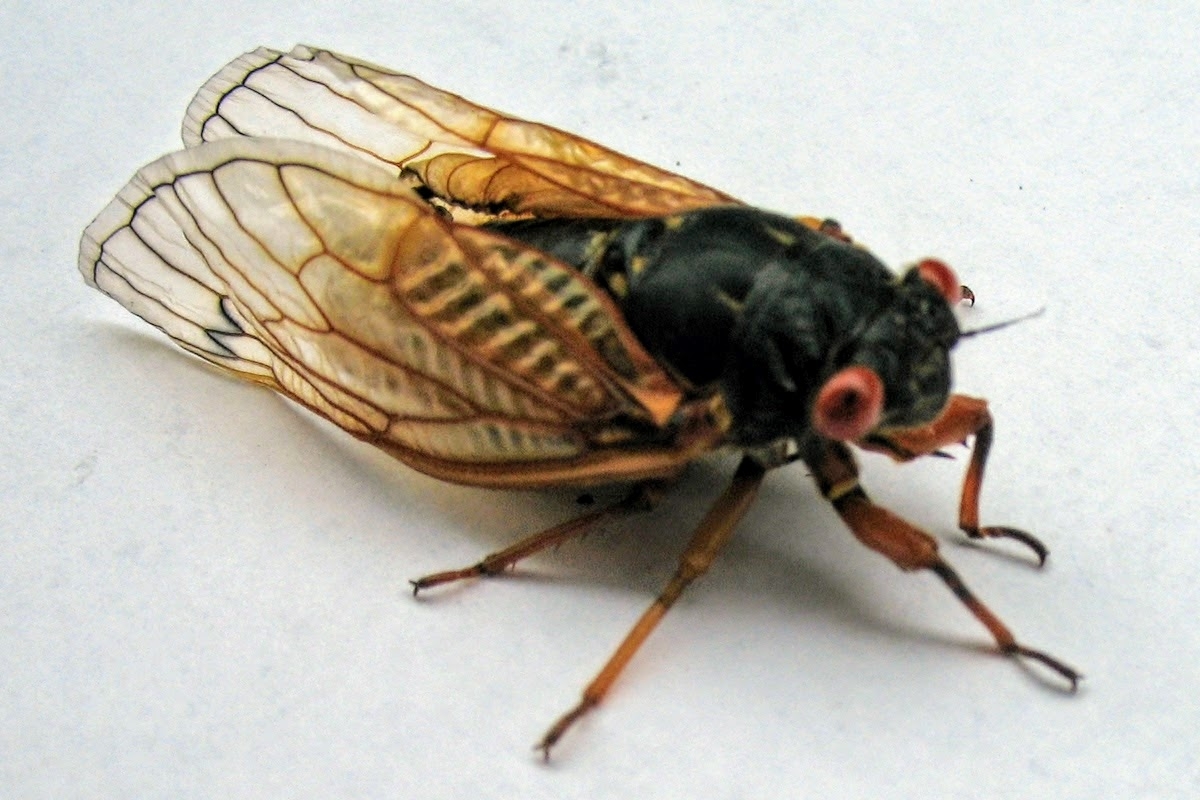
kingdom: Animalia
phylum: Arthropoda
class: Insecta
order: Hemiptera
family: Cicadidae
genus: Magicicada
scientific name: Magicicada
